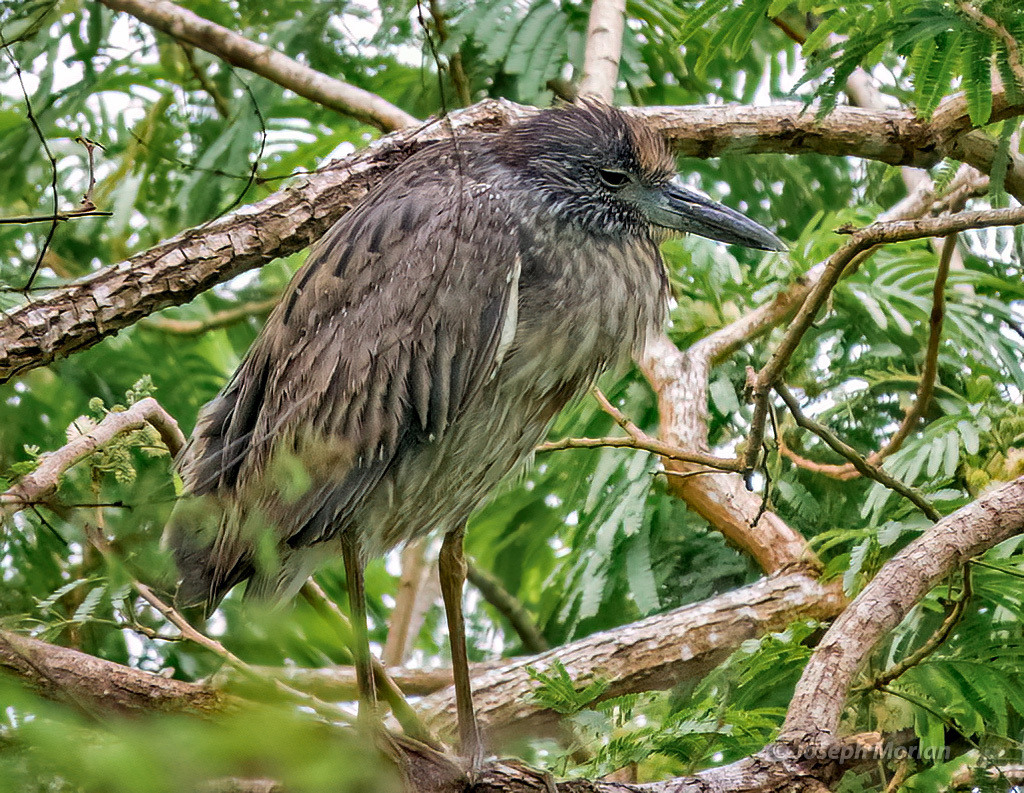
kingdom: Animalia
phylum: Chordata
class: Aves
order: Pelecaniformes
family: Ardeidae
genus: Nyctanassa
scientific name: Nyctanassa violacea
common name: Yellow-crowned night heron
